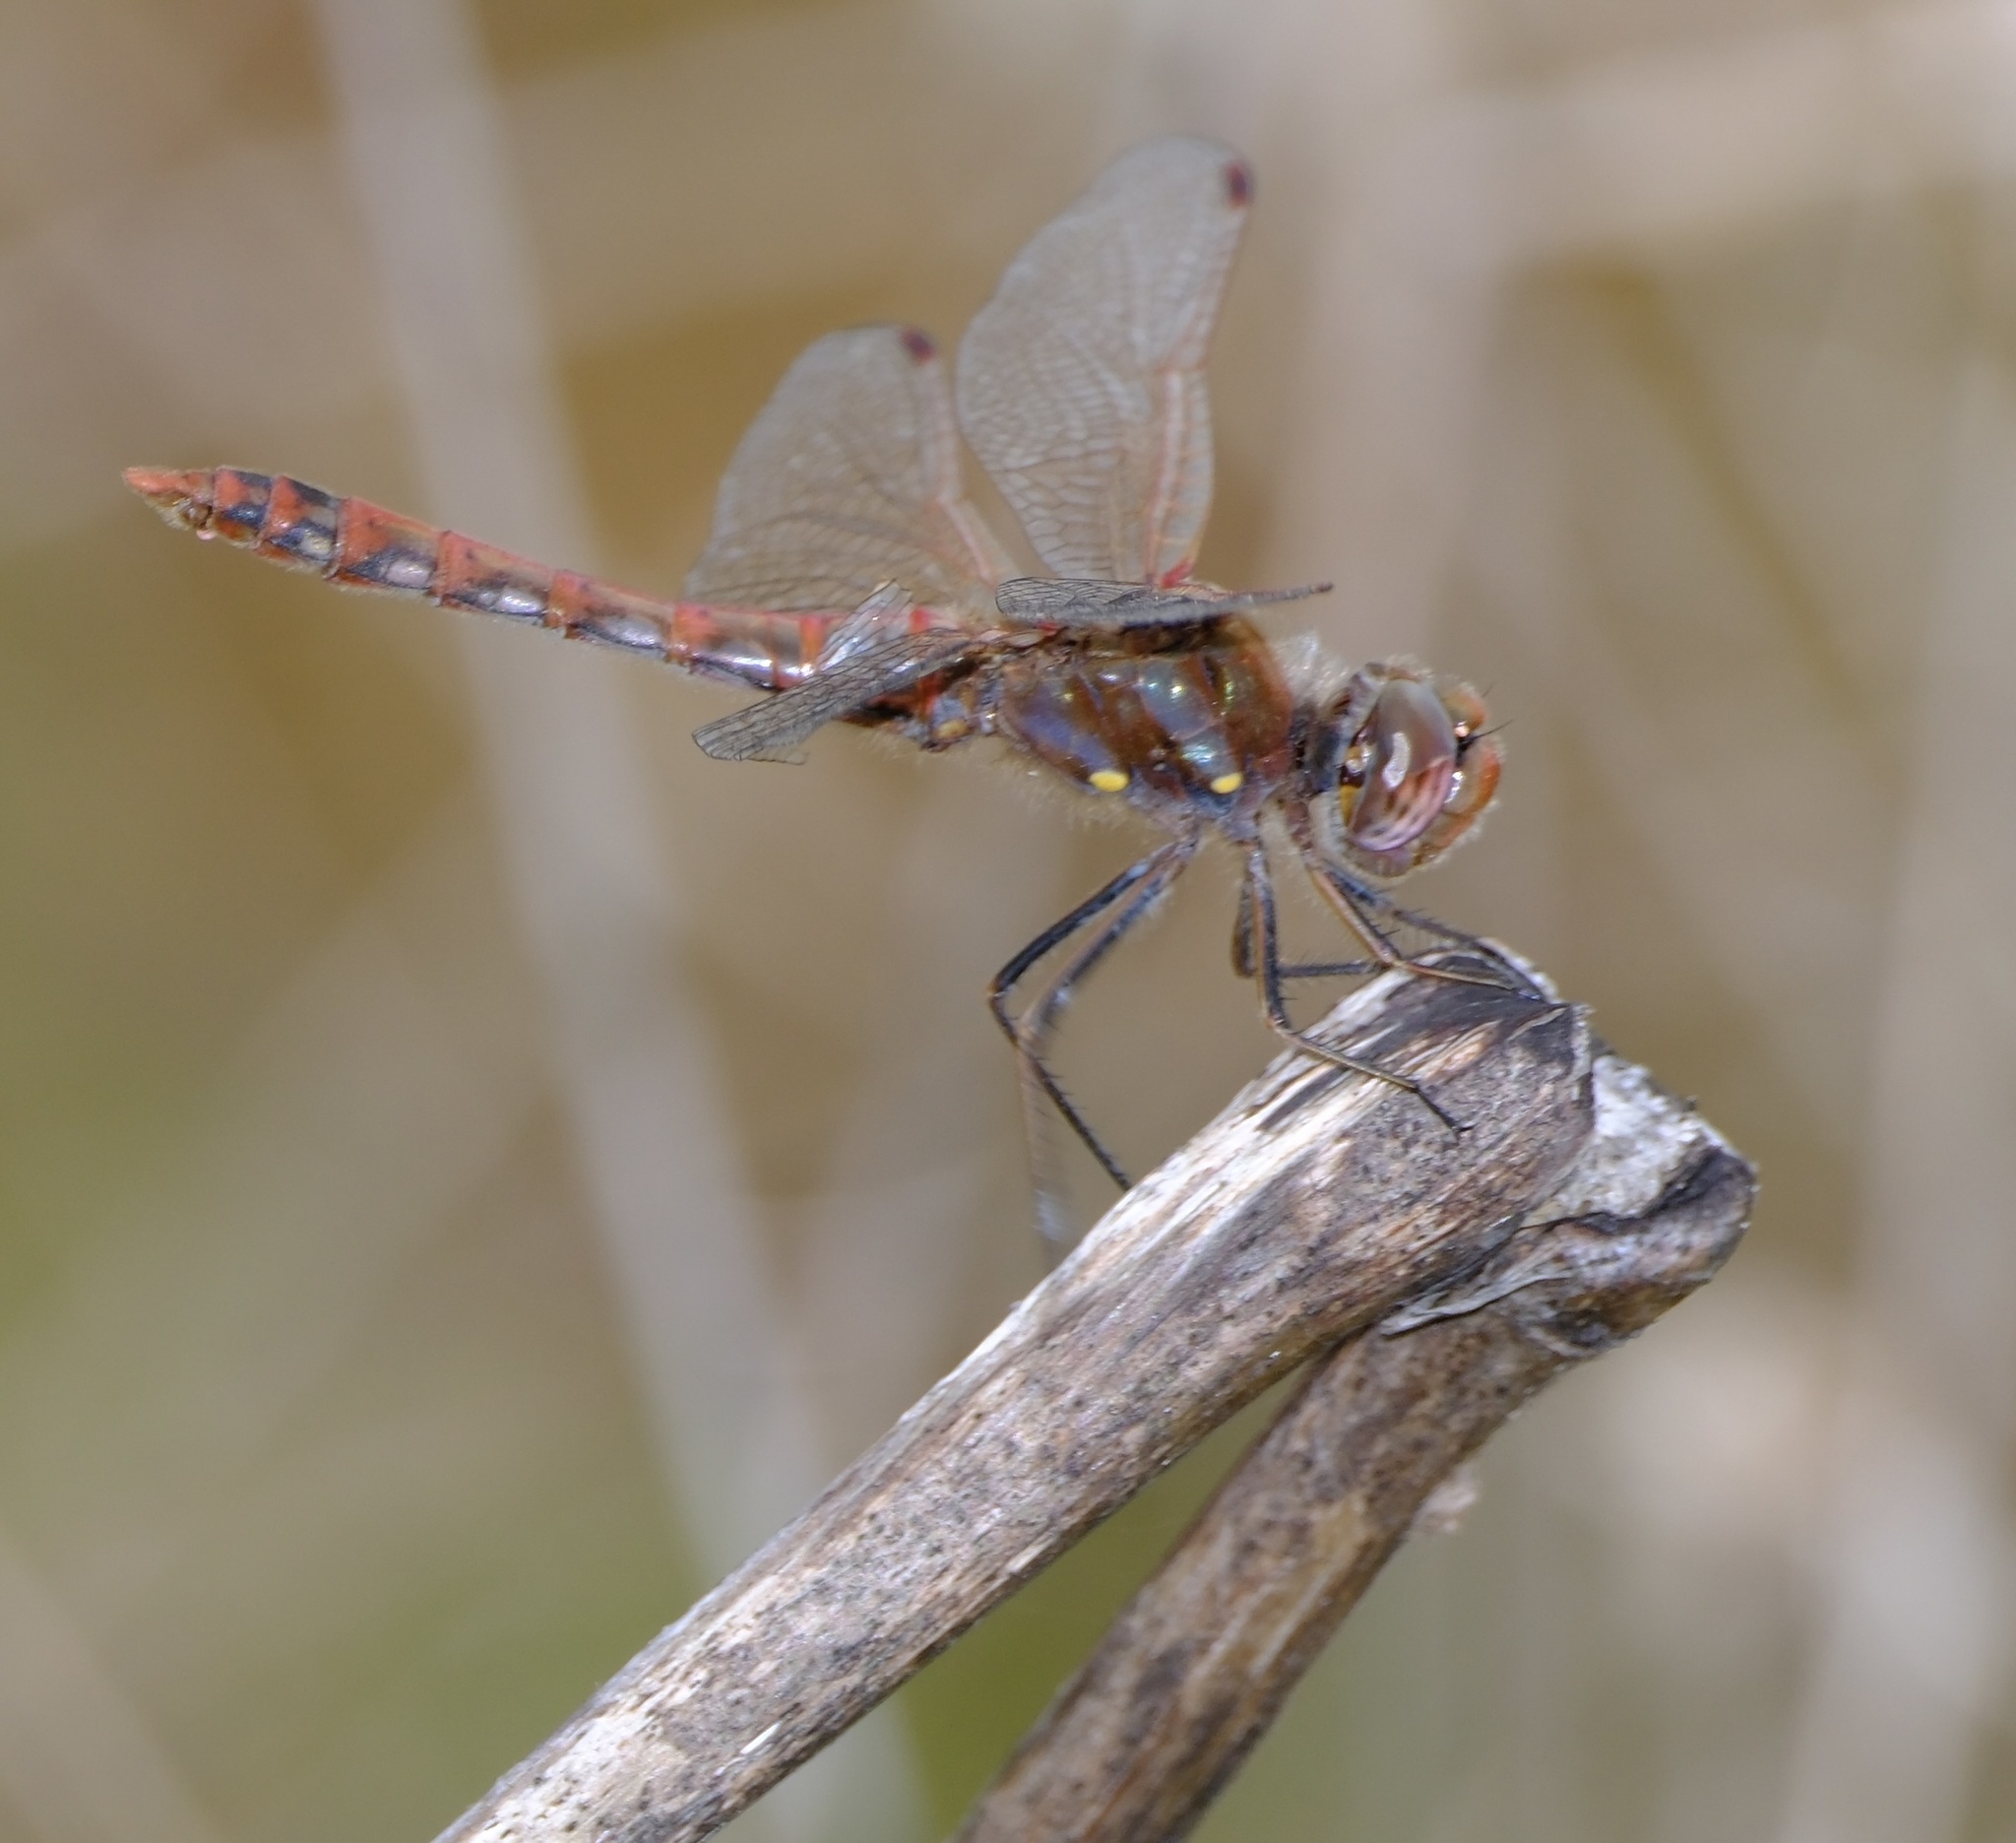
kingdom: Animalia
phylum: Arthropoda
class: Insecta
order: Odonata
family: Libellulidae
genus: Sympetrum
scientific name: Sympetrum corruptum
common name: Variegated meadowhawk
